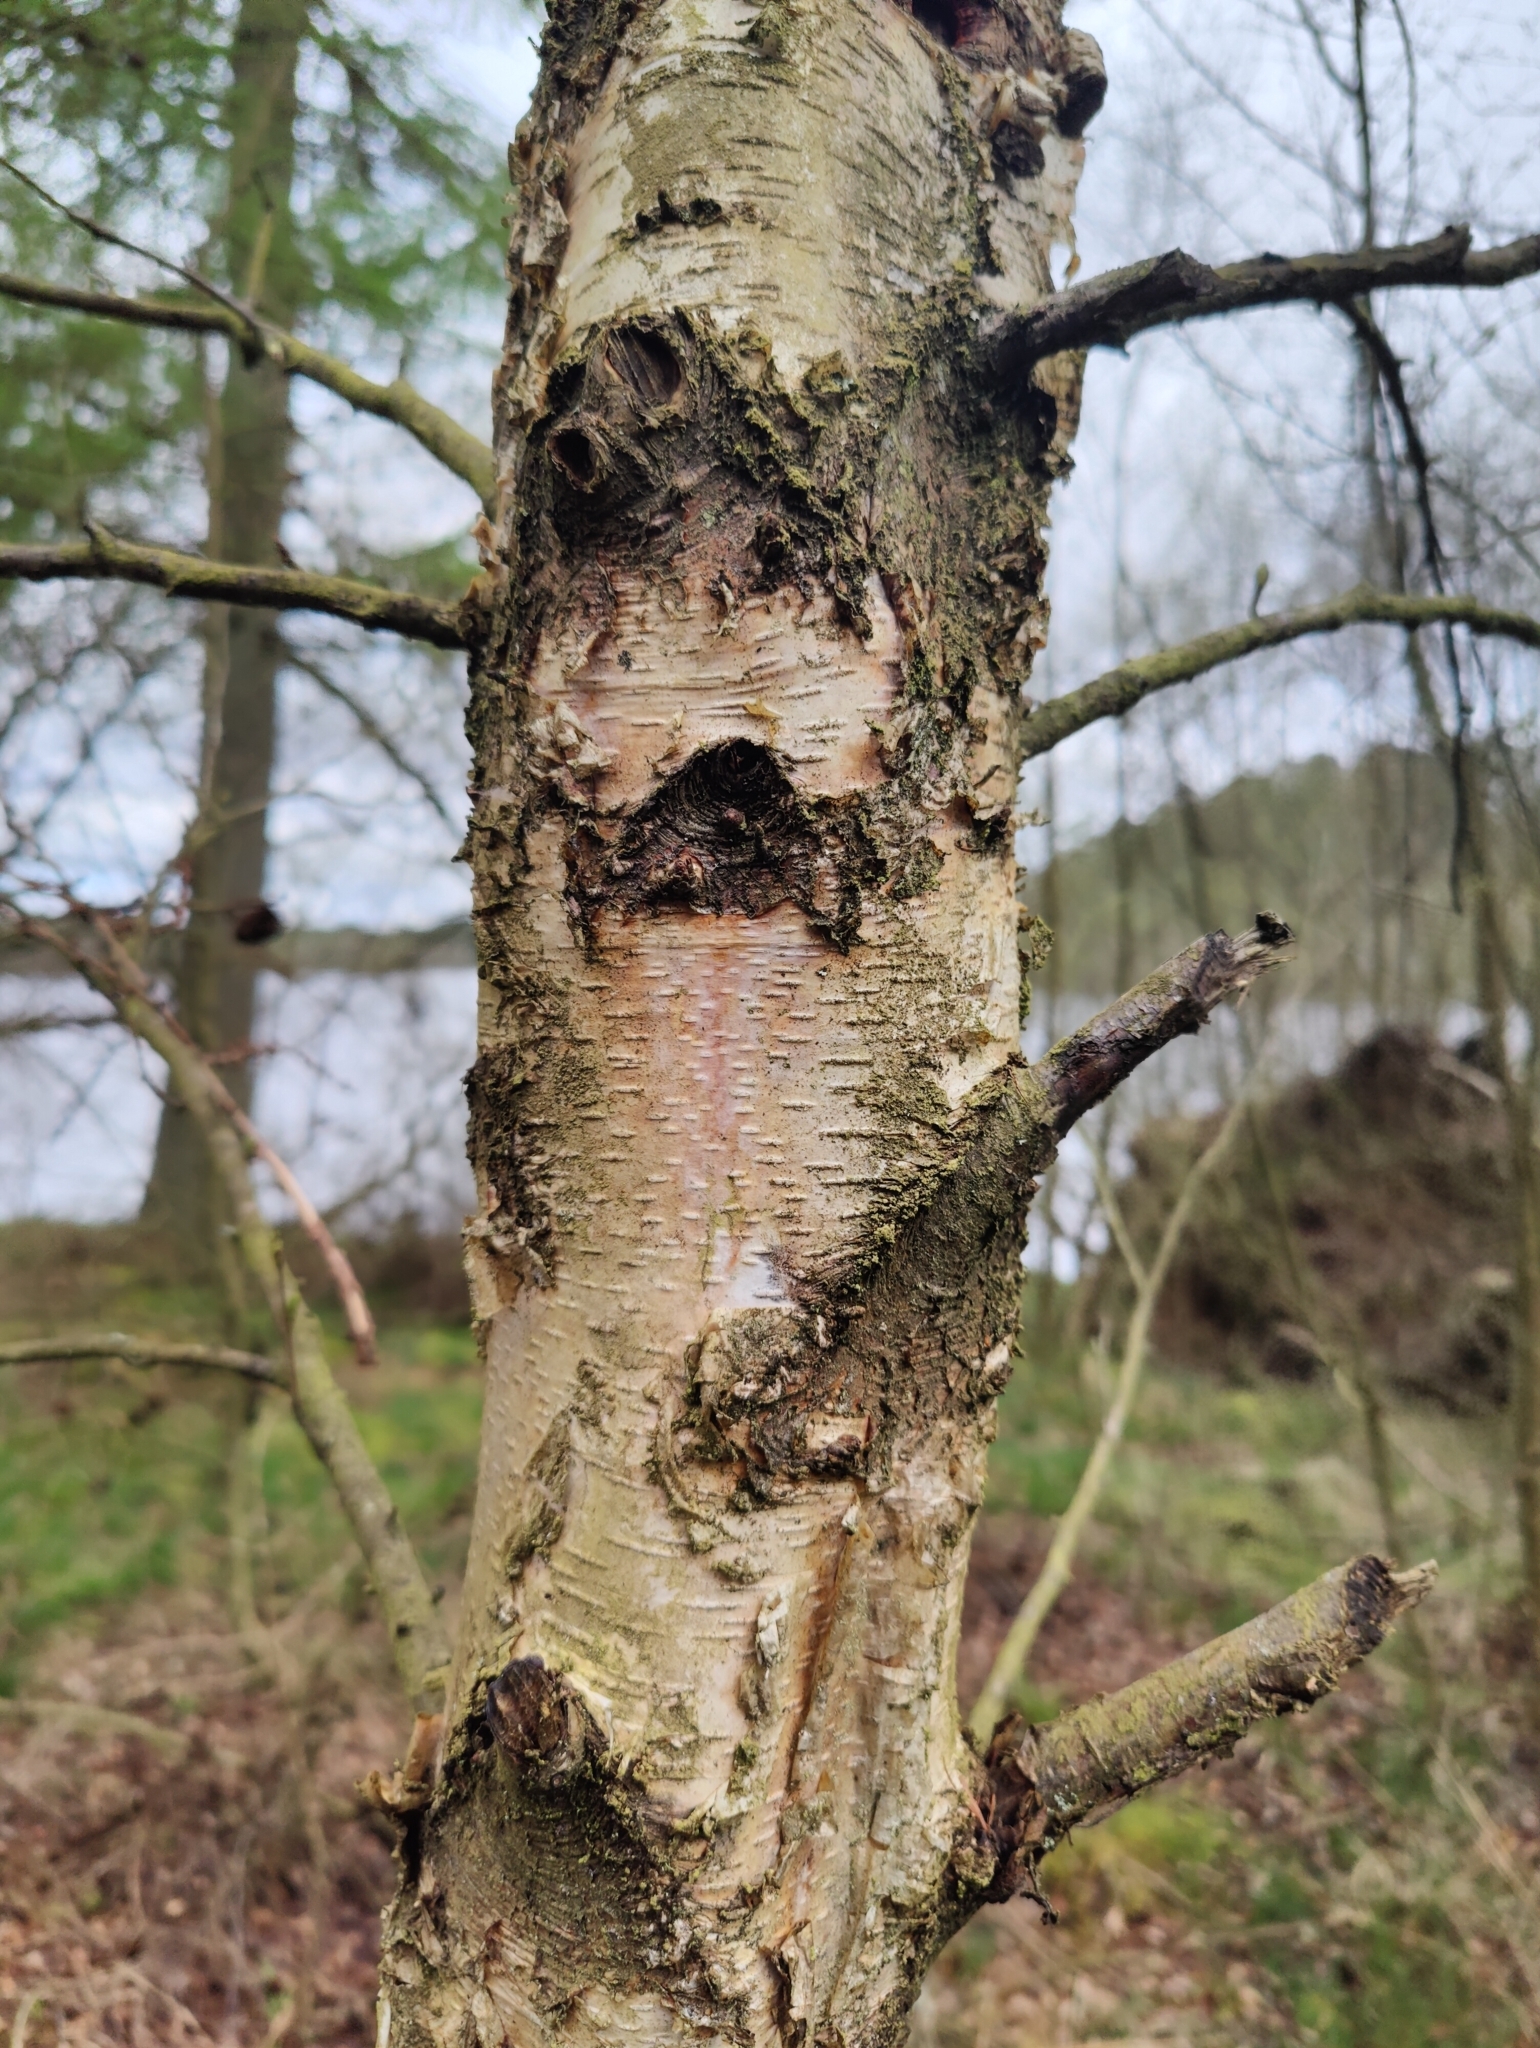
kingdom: Plantae
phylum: Tracheophyta
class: Magnoliopsida
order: Fagales
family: Betulaceae
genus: Betula
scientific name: Betula pendula
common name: Silver birch
